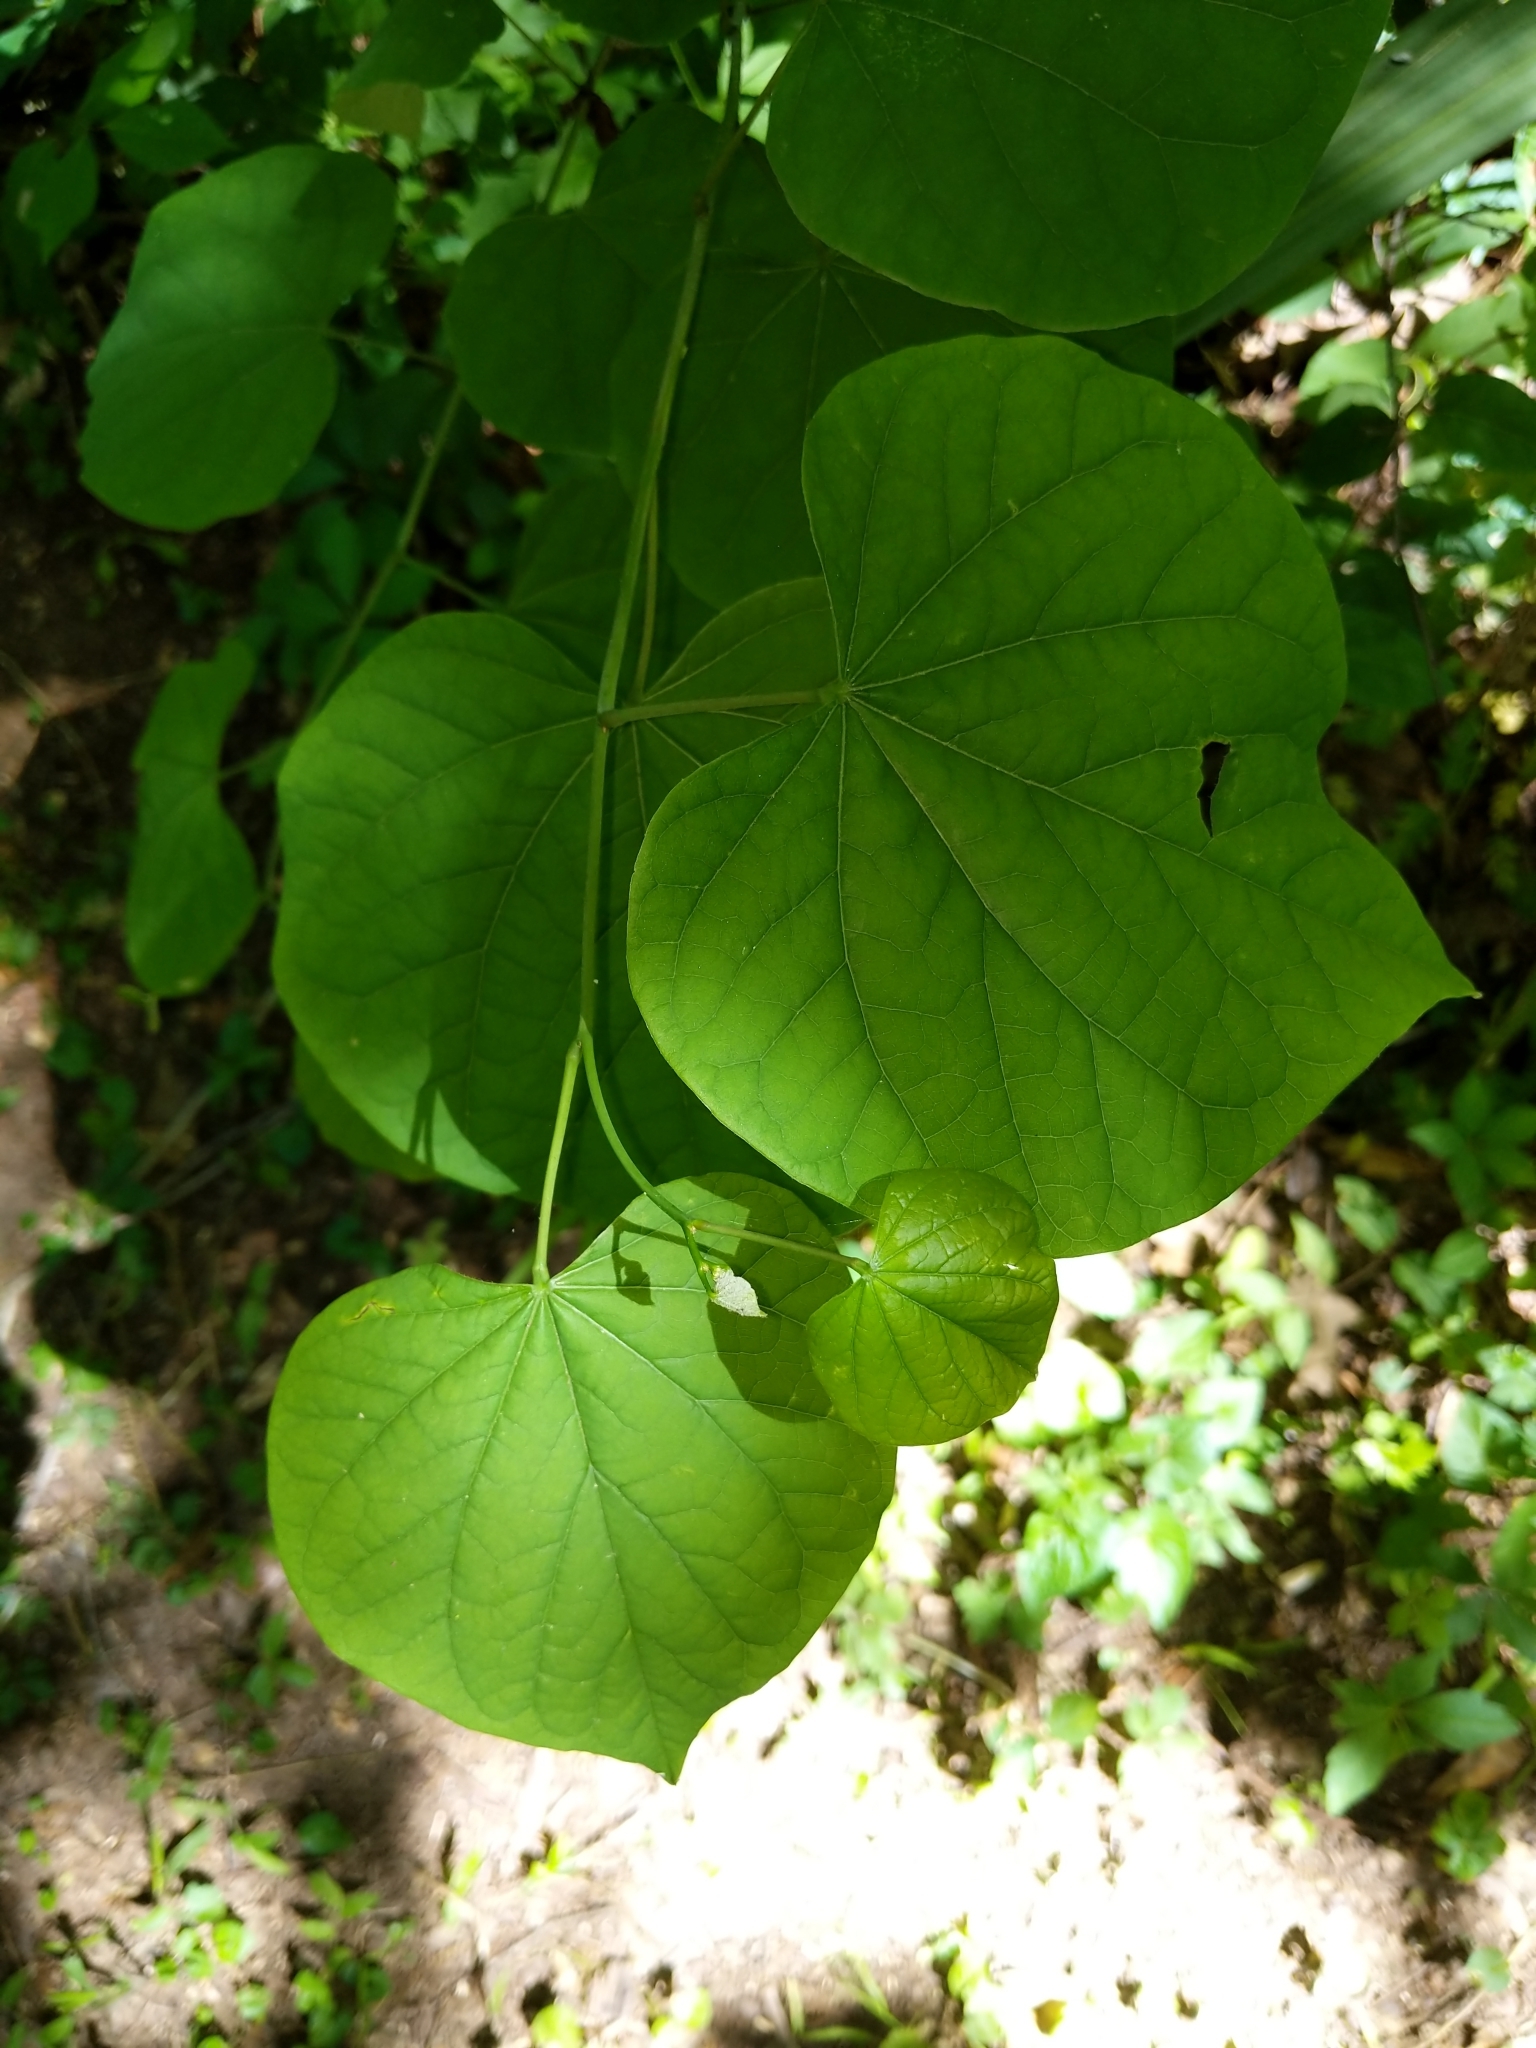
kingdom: Plantae
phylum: Tracheophyta
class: Magnoliopsida
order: Fabales
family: Fabaceae
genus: Cercis
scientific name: Cercis canadensis
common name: Eastern redbud
